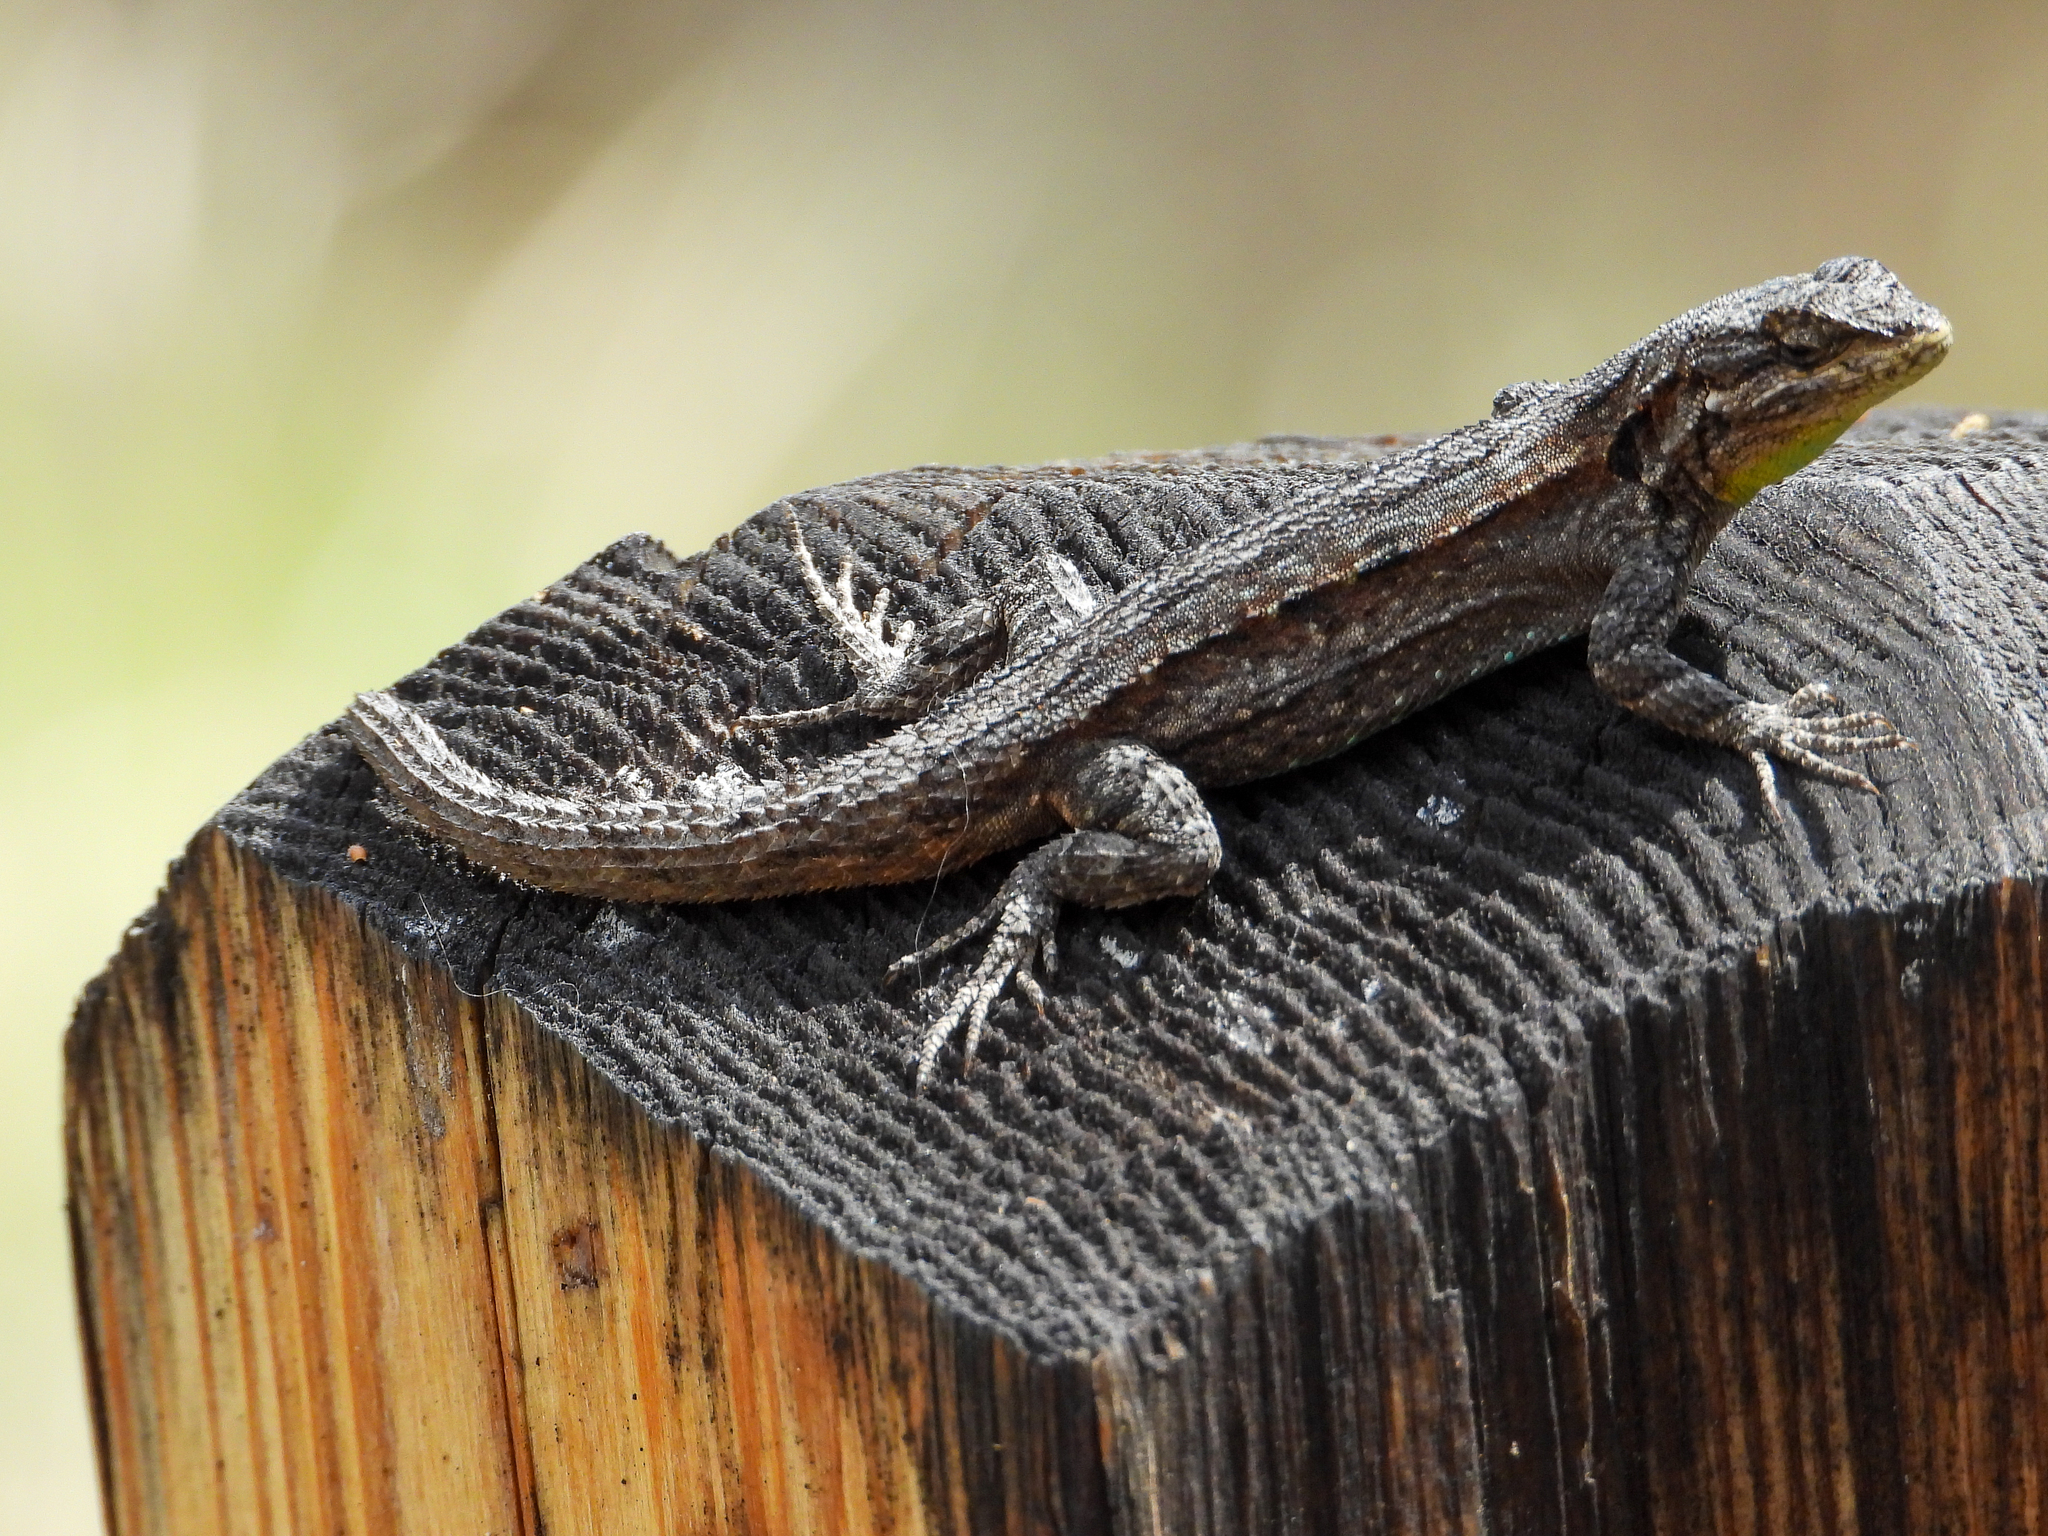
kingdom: Animalia
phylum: Chordata
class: Squamata
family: Phrynosomatidae
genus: Urosaurus
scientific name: Urosaurus ornatus
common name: Ornate tree lizard
